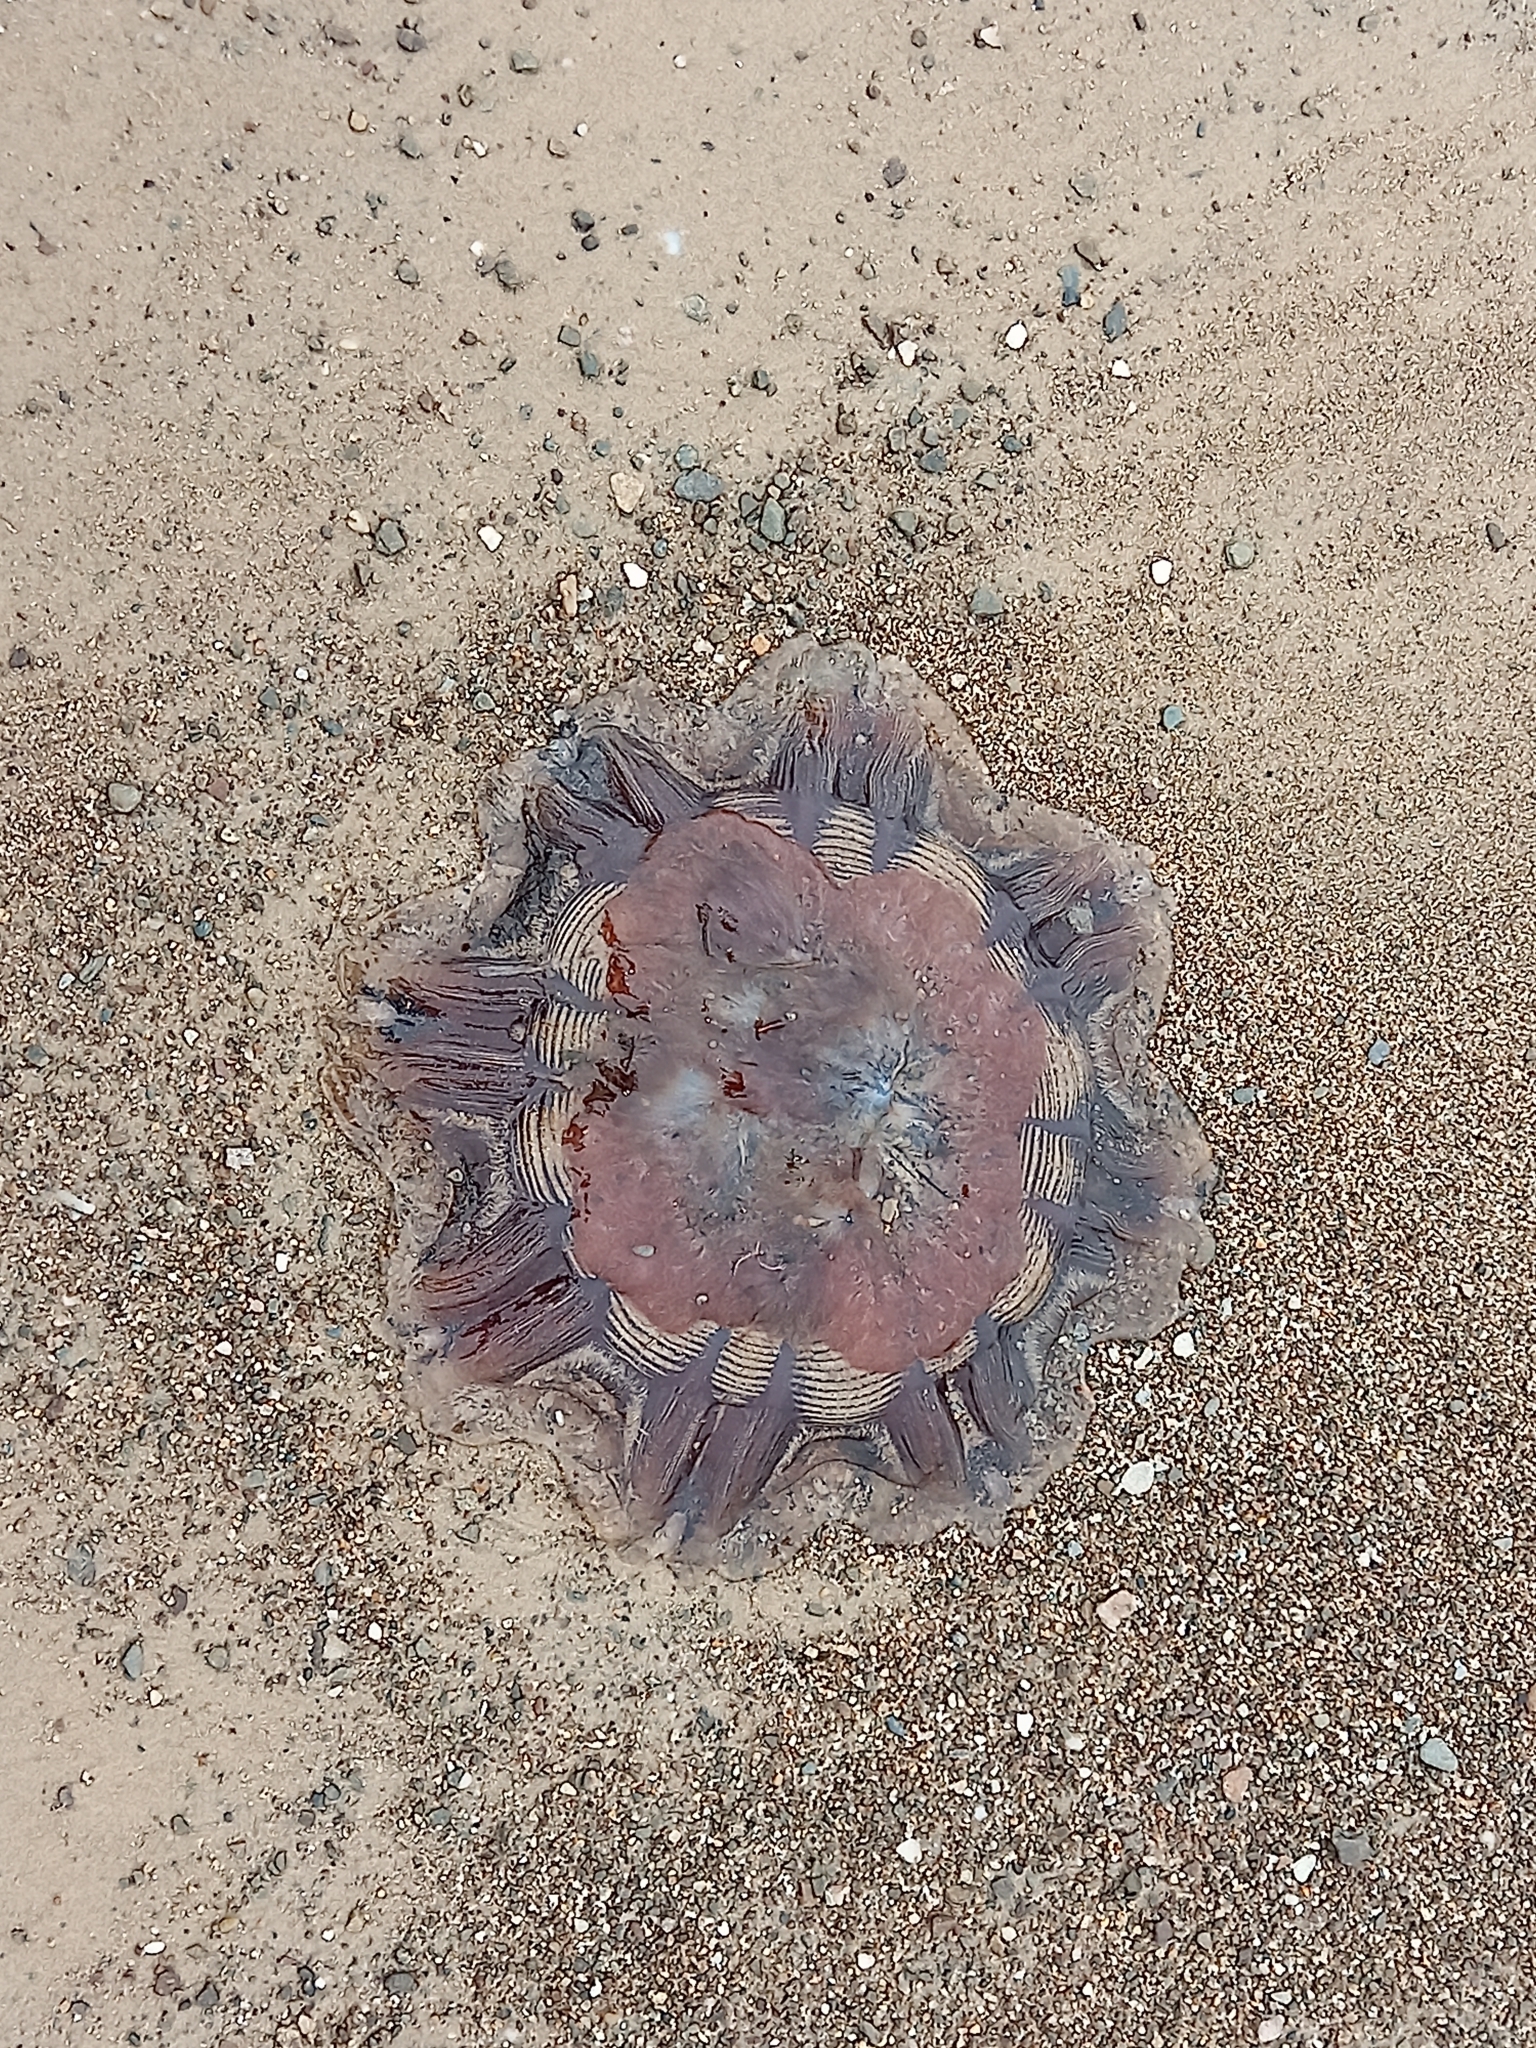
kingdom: Animalia
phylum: Cnidaria
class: Scyphozoa
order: Semaeostomeae
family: Cyaneidae
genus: Cyanea
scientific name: Cyanea capillata
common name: Lion's mane jellyfish
